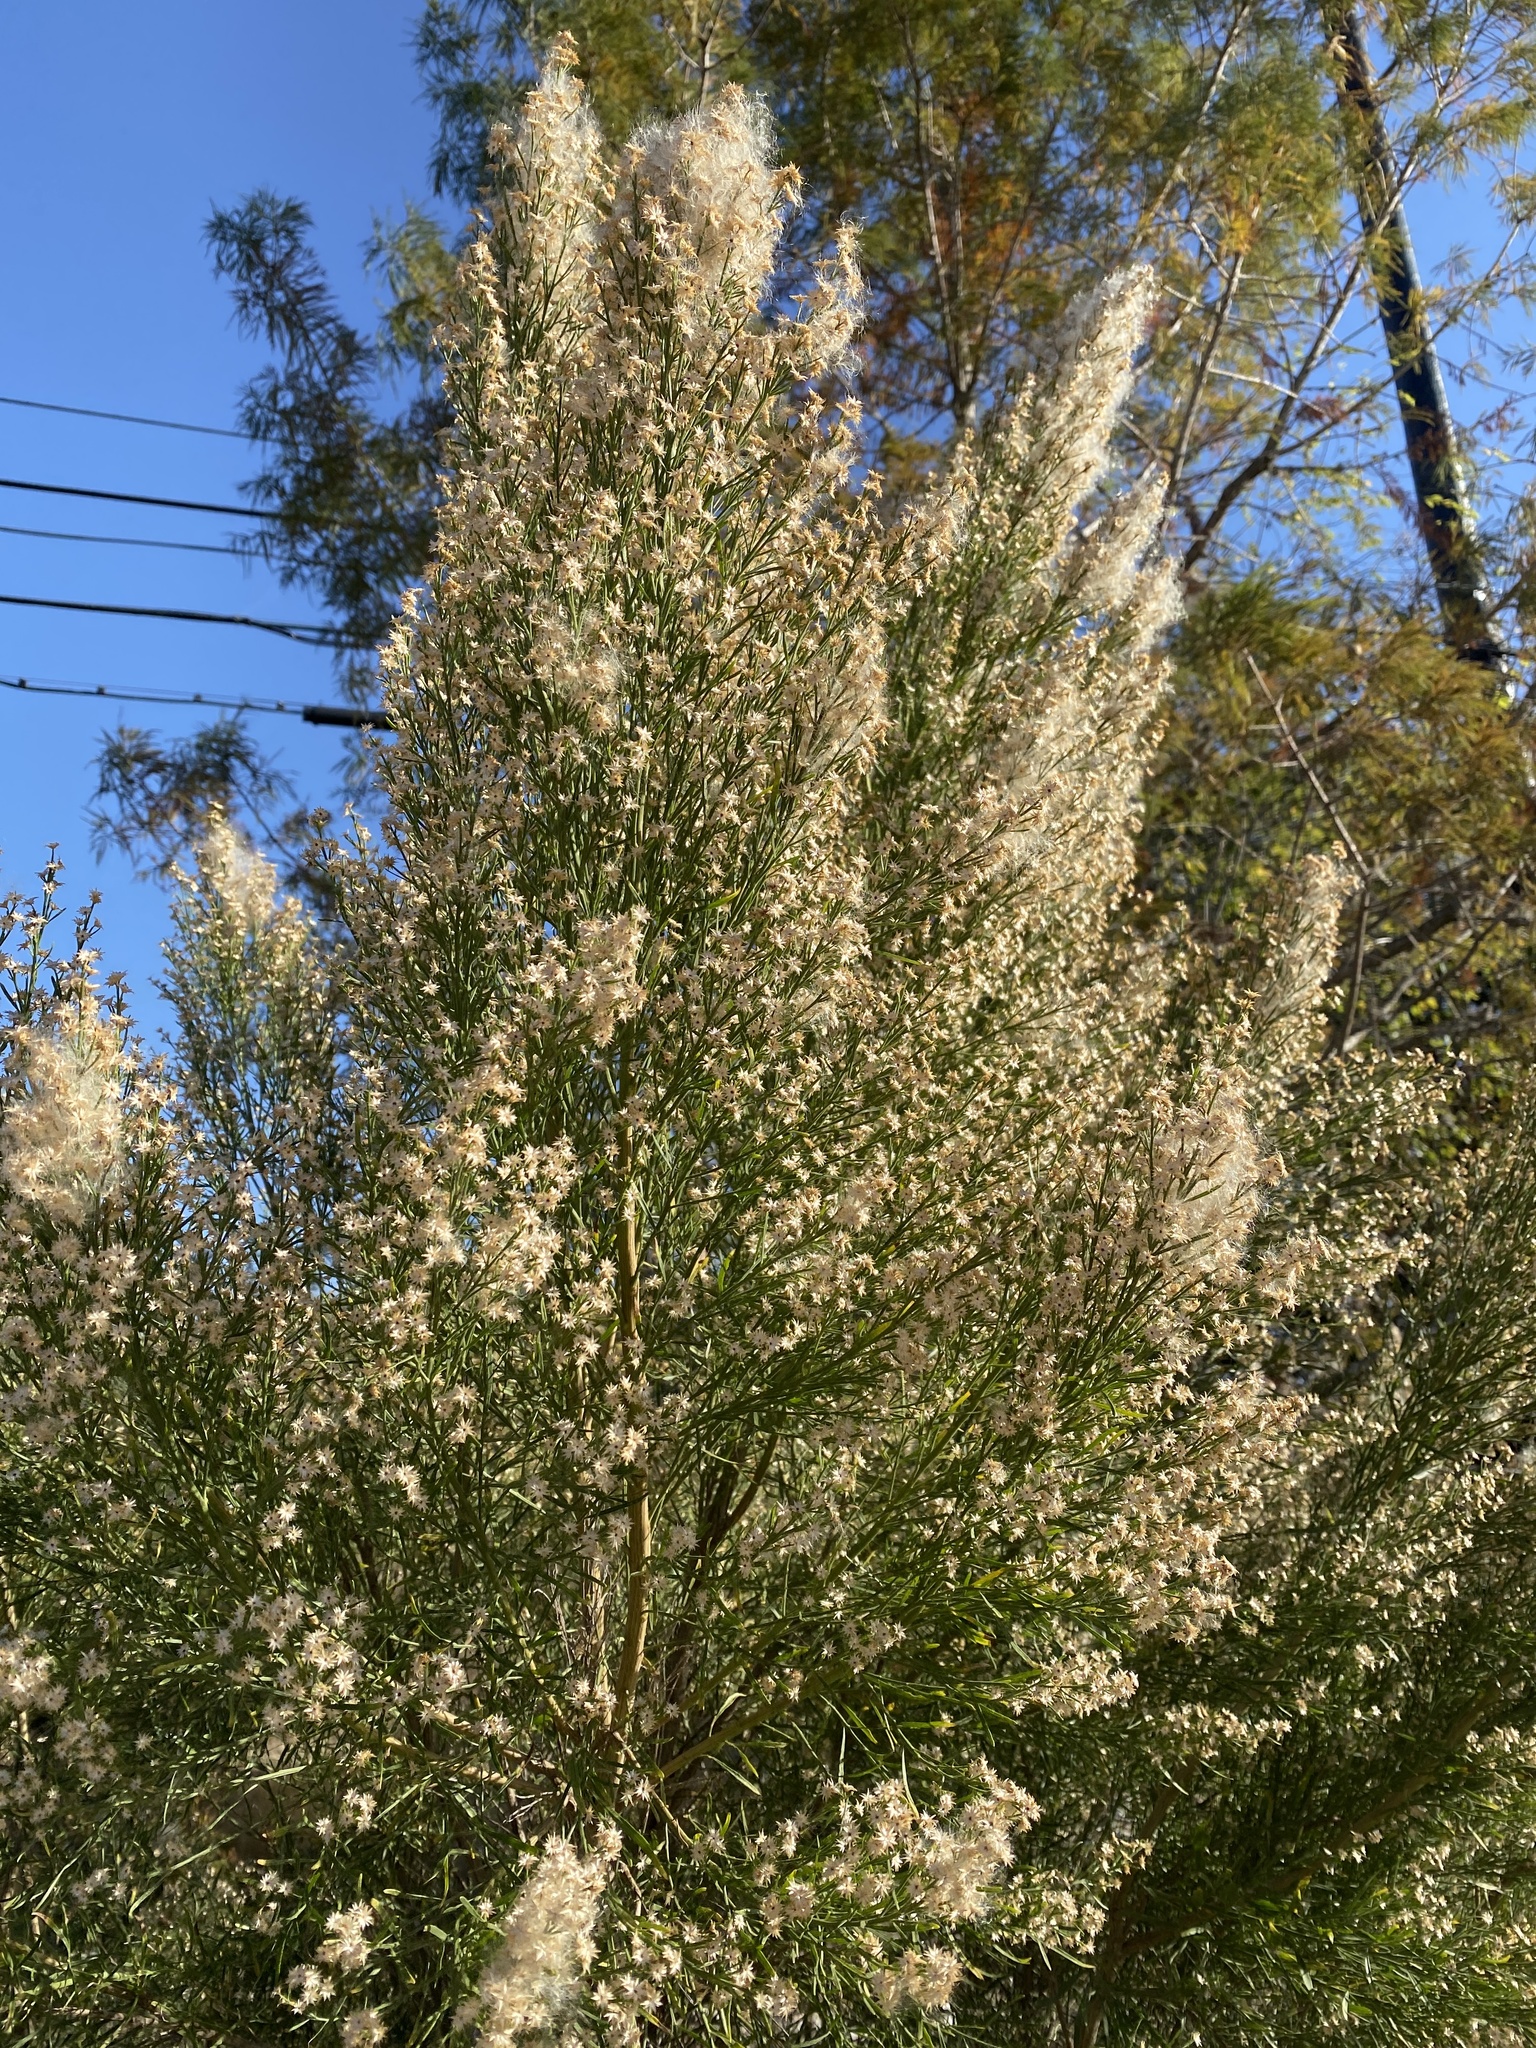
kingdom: Plantae
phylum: Tracheophyta
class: Magnoliopsida
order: Asterales
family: Asteraceae
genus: Baccharis
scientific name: Baccharis neglecta
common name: Roosevelt-weed
